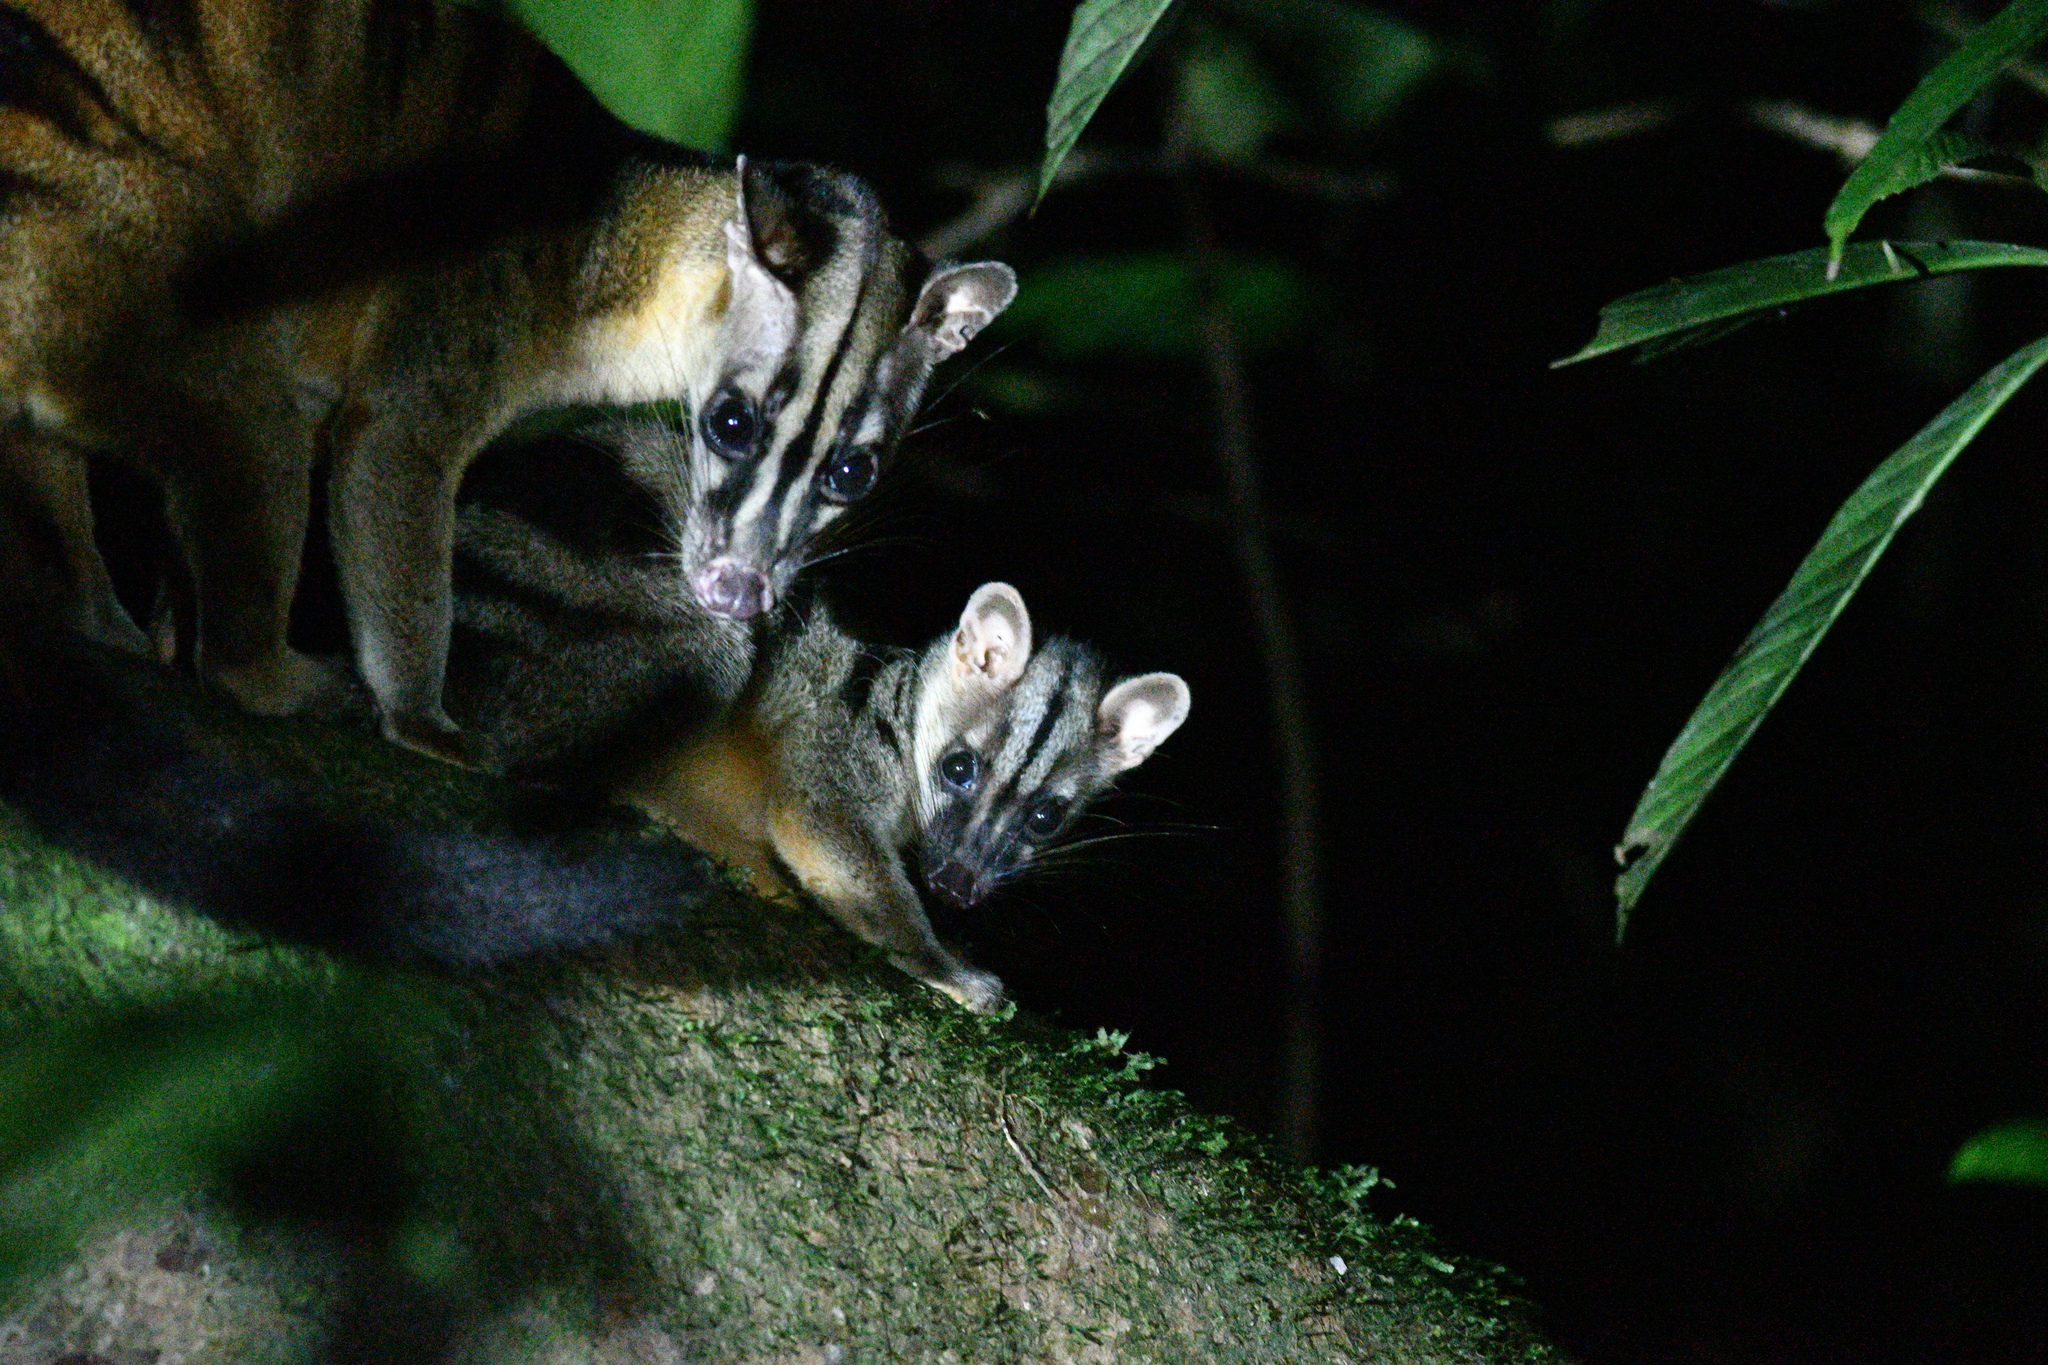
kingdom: Animalia
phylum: Chordata
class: Mammalia
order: Carnivora
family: Viverridae
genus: Hemigalus
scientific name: Hemigalus derbyanus
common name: Banded palm civet
